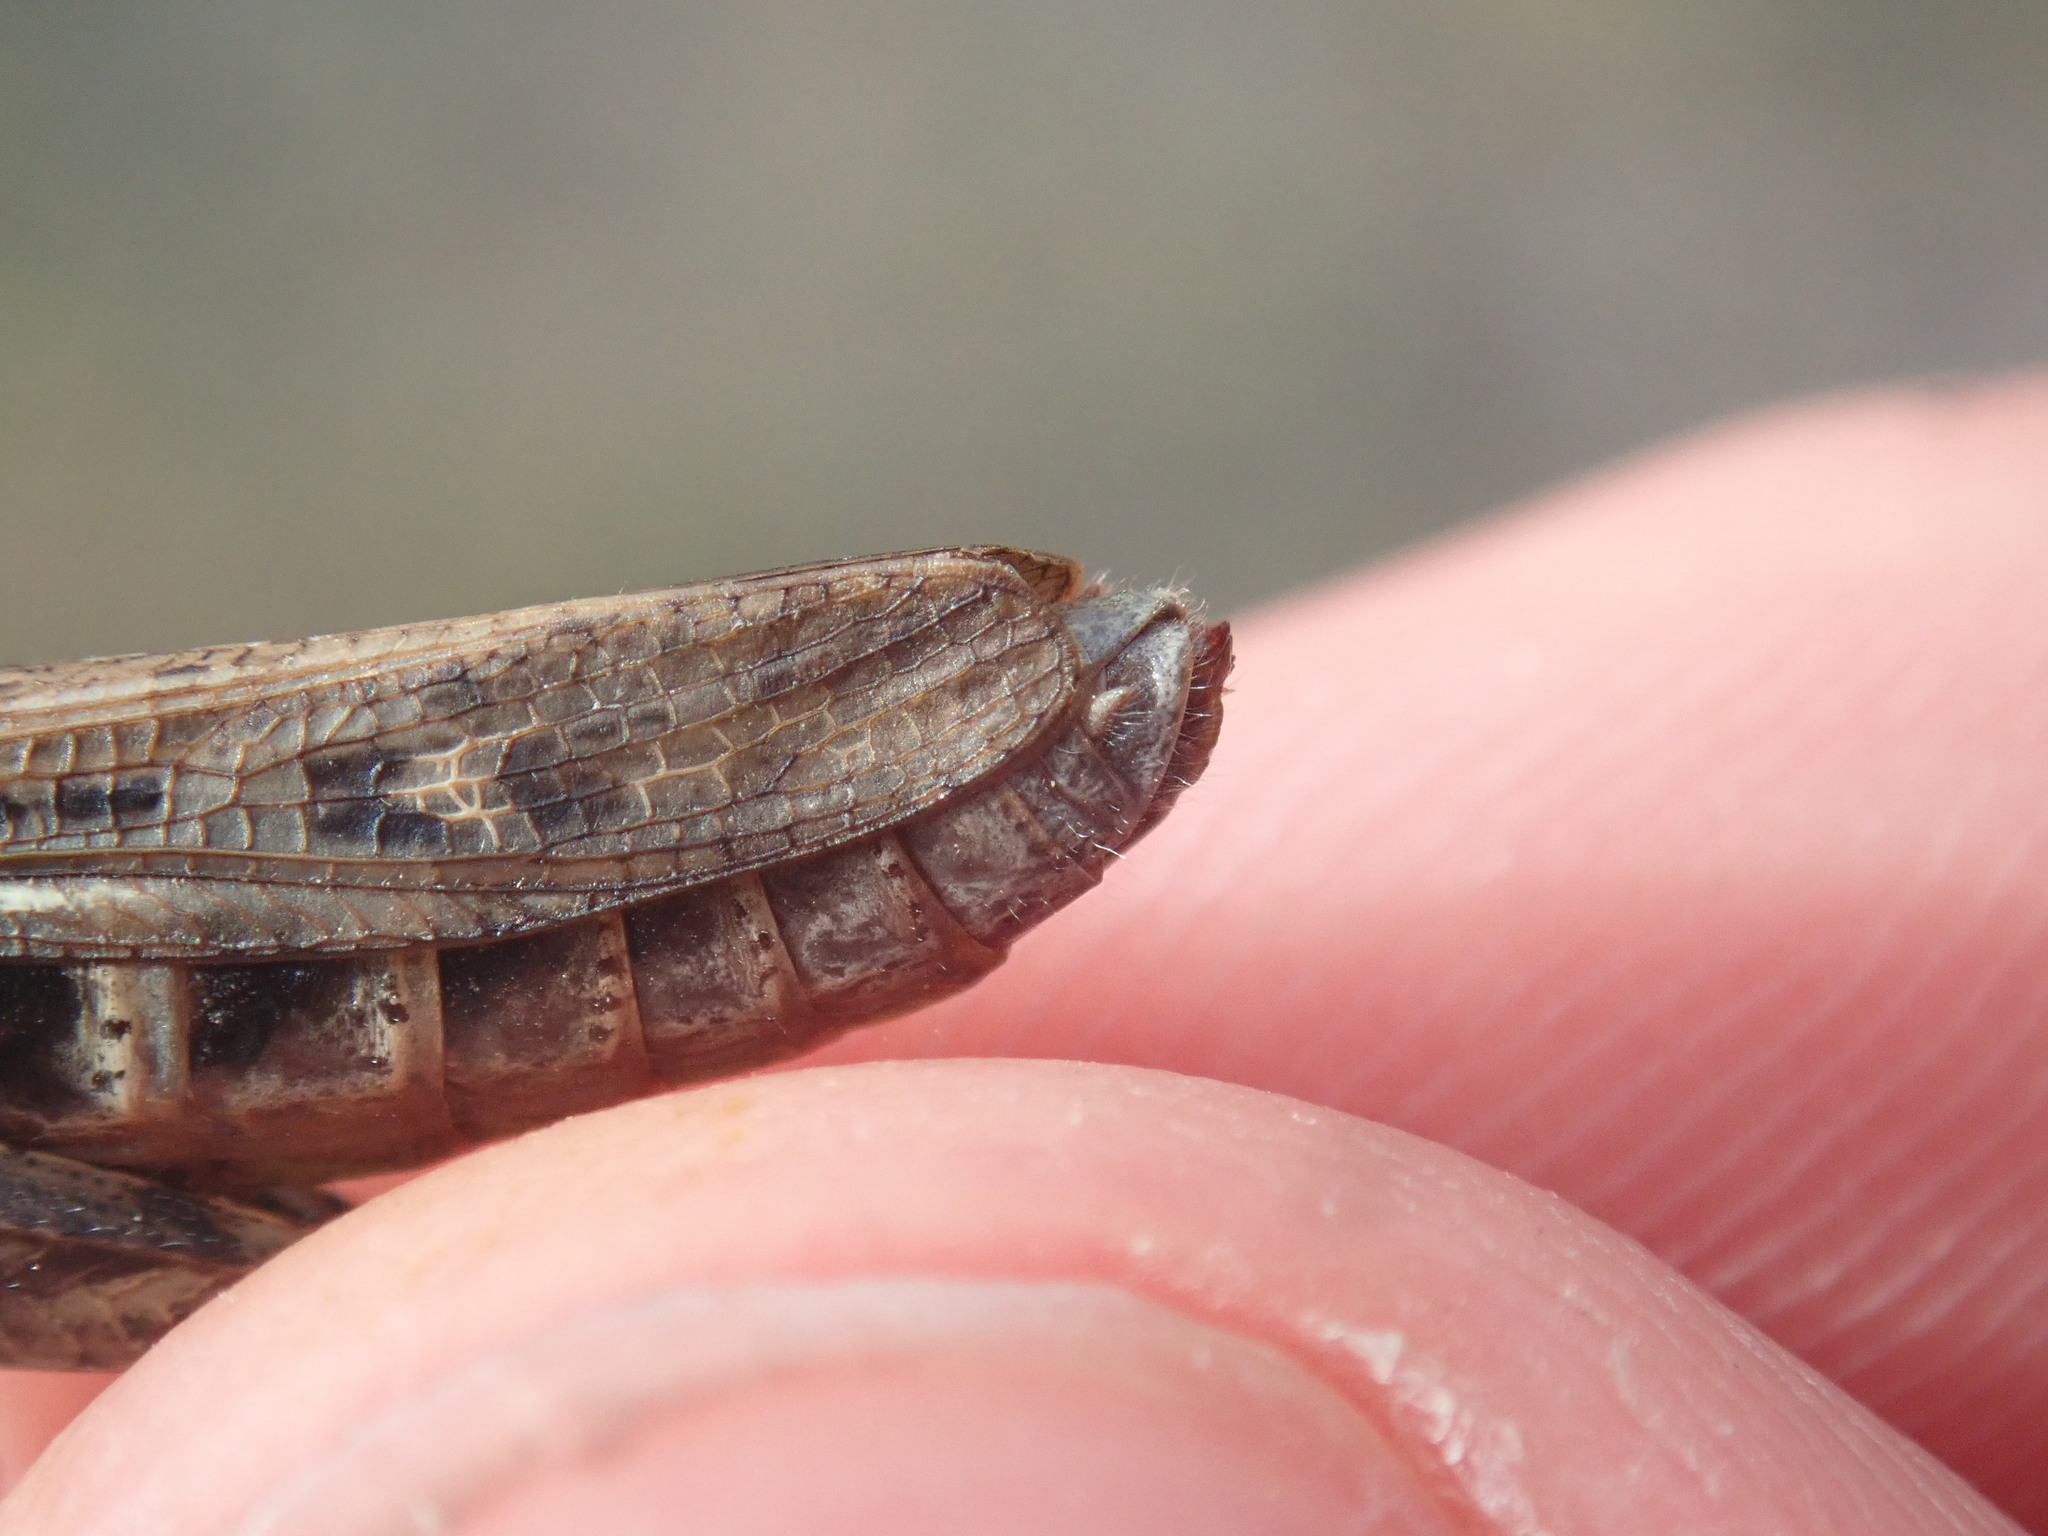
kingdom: Animalia
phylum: Arthropoda
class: Insecta
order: Orthoptera
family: Acrididae
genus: Glyptobothrus
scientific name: Glyptobothrus
